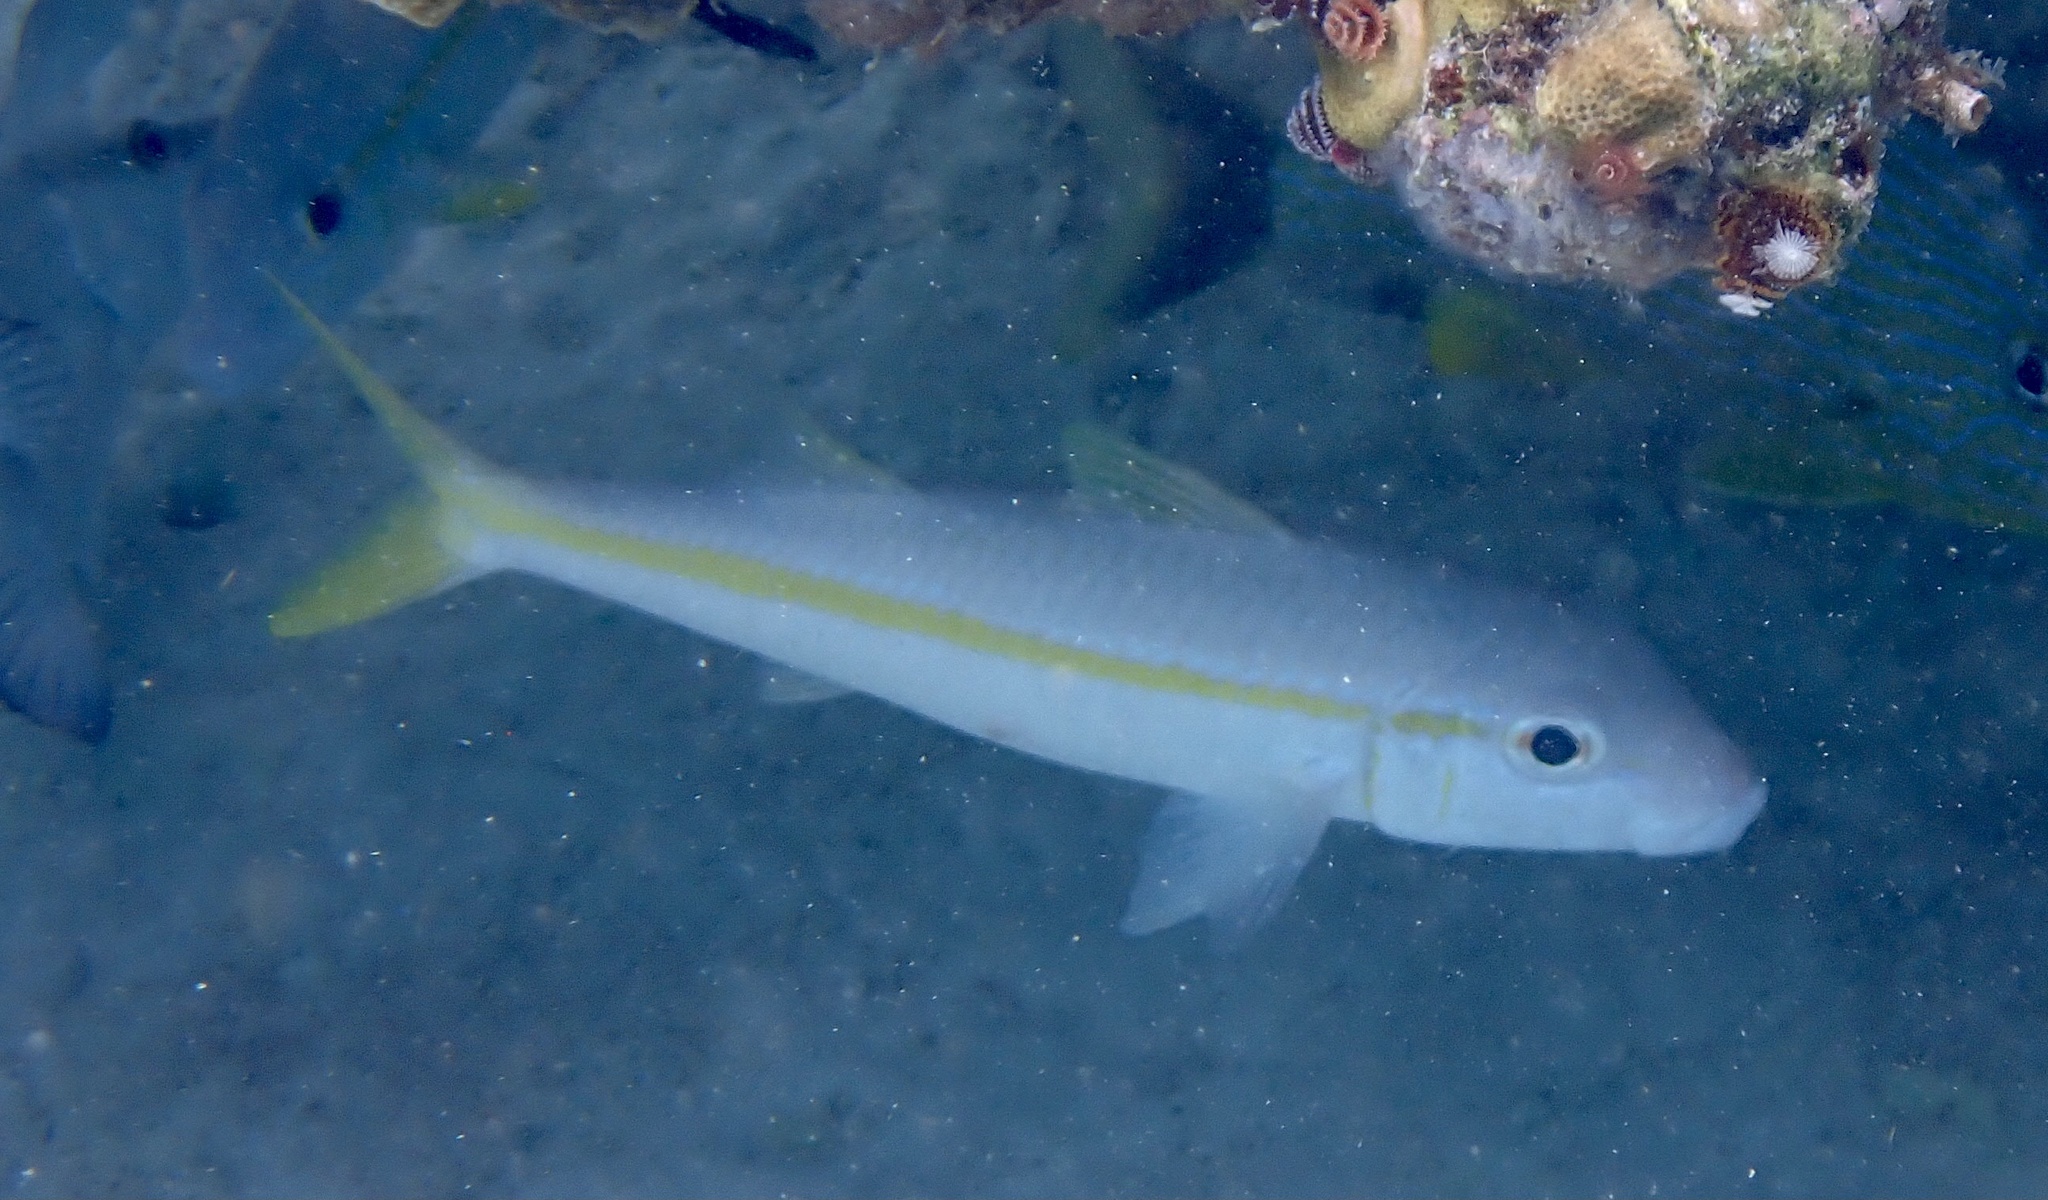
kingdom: Animalia
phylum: Chordata
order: Perciformes
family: Mullidae
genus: Mulloidichthys
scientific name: Mulloidichthys martinicus
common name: Yellow goatfish
